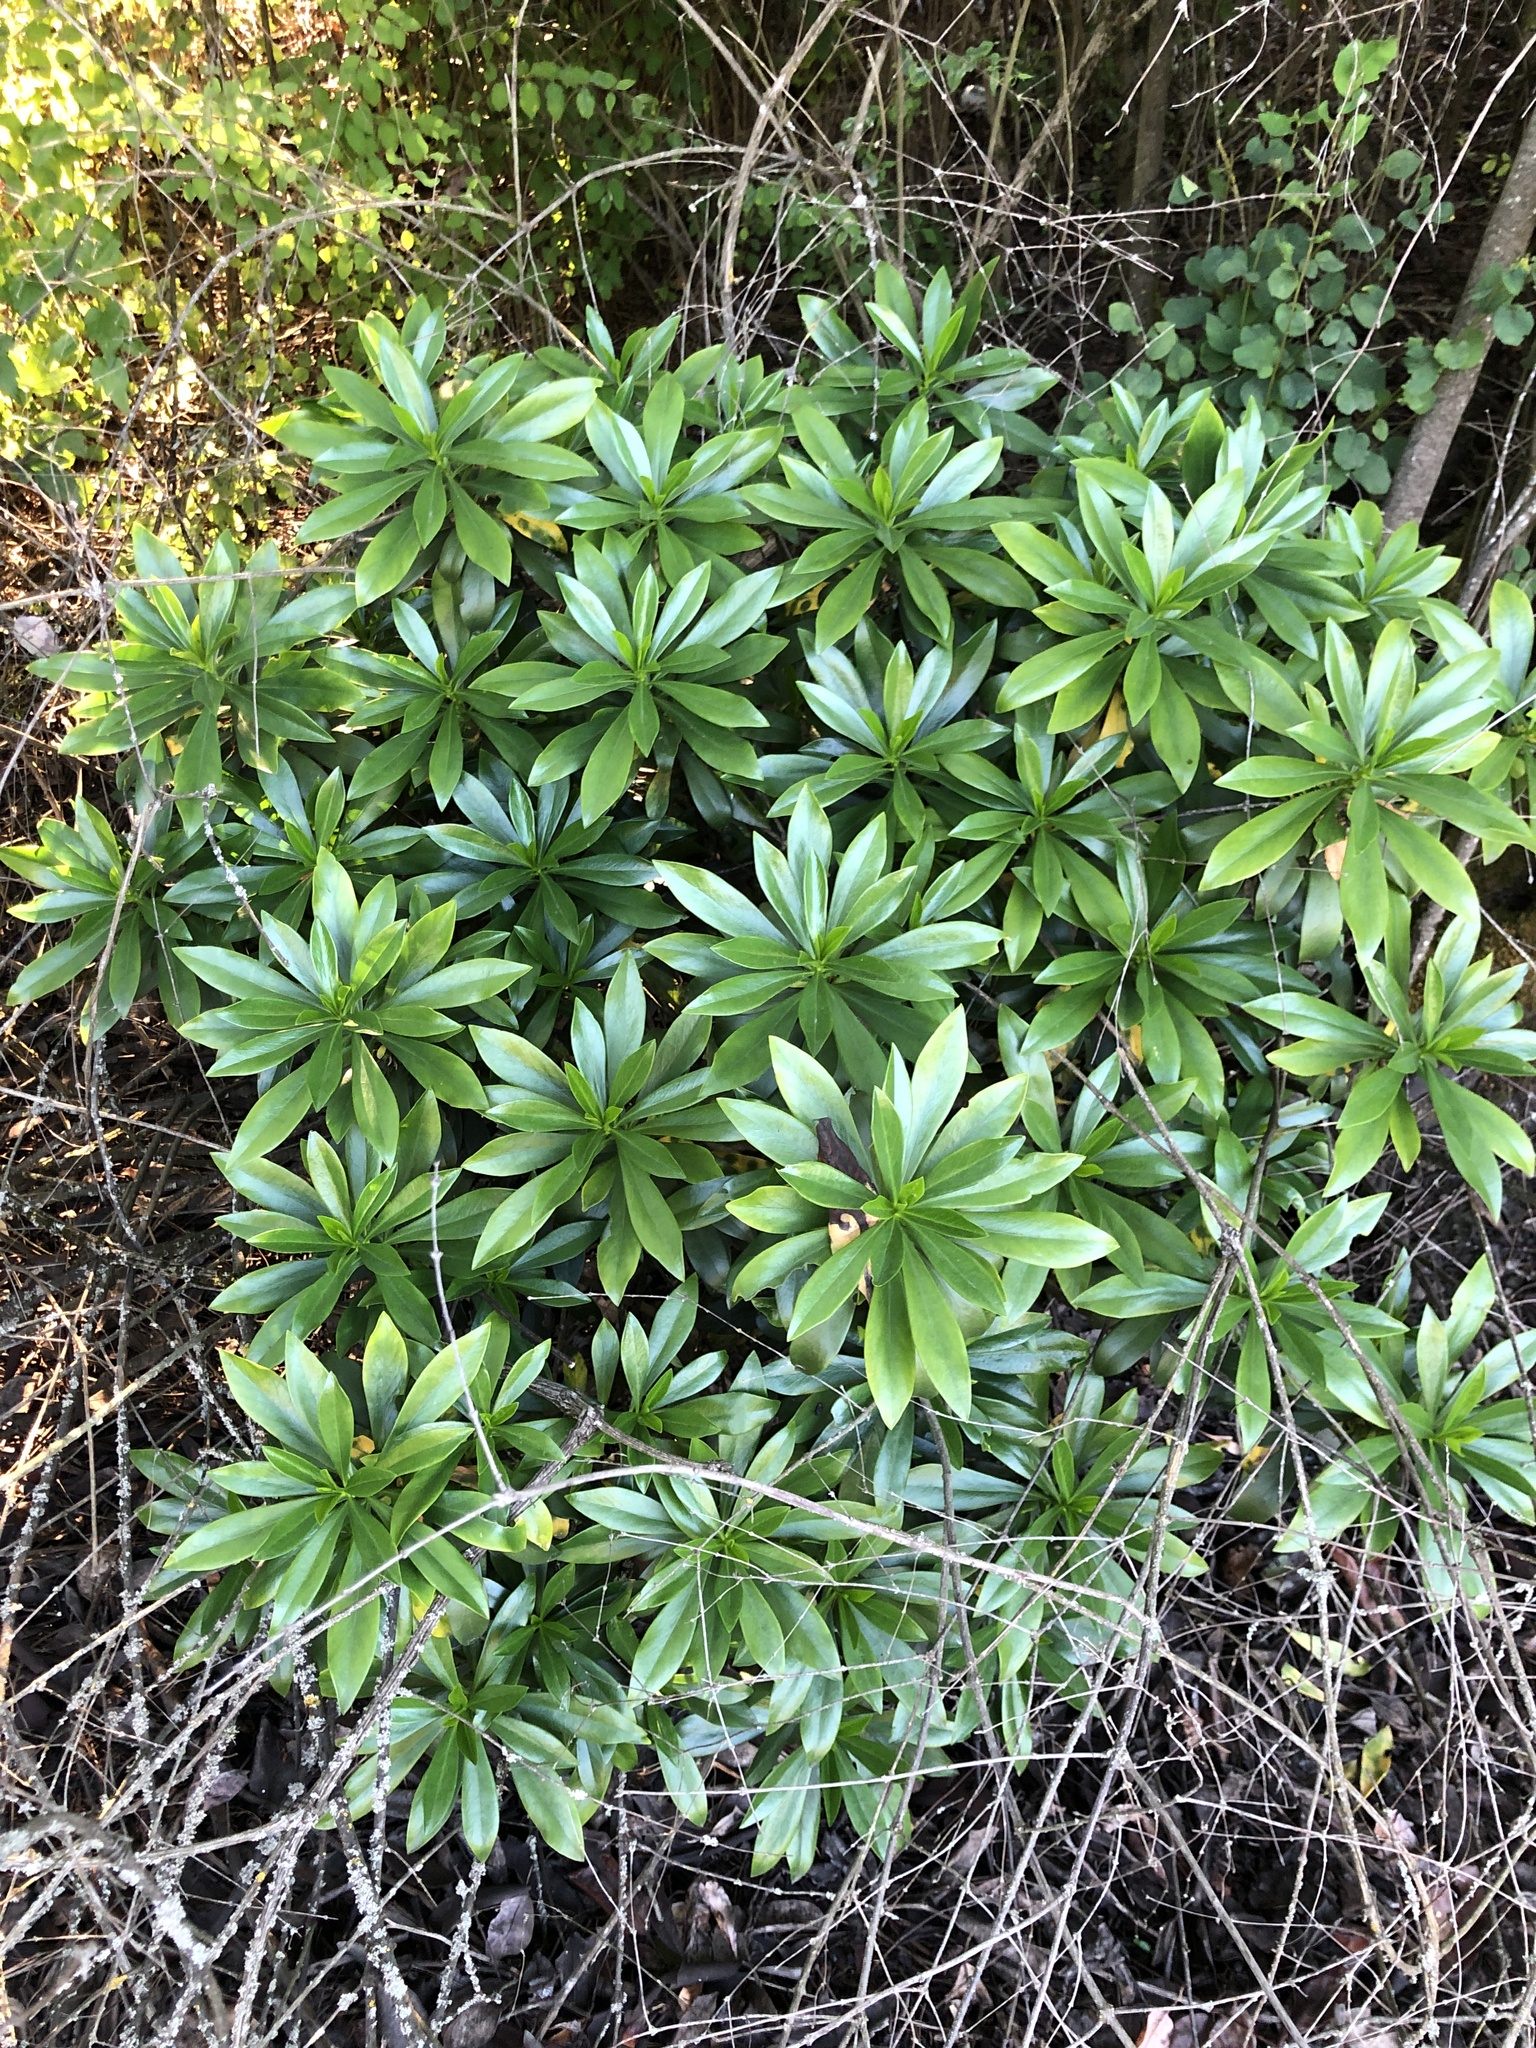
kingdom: Plantae
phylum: Tracheophyta
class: Magnoliopsida
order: Malvales
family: Thymelaeaceae
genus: Daphne
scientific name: Daphne laureola
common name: Spurge-laurel
